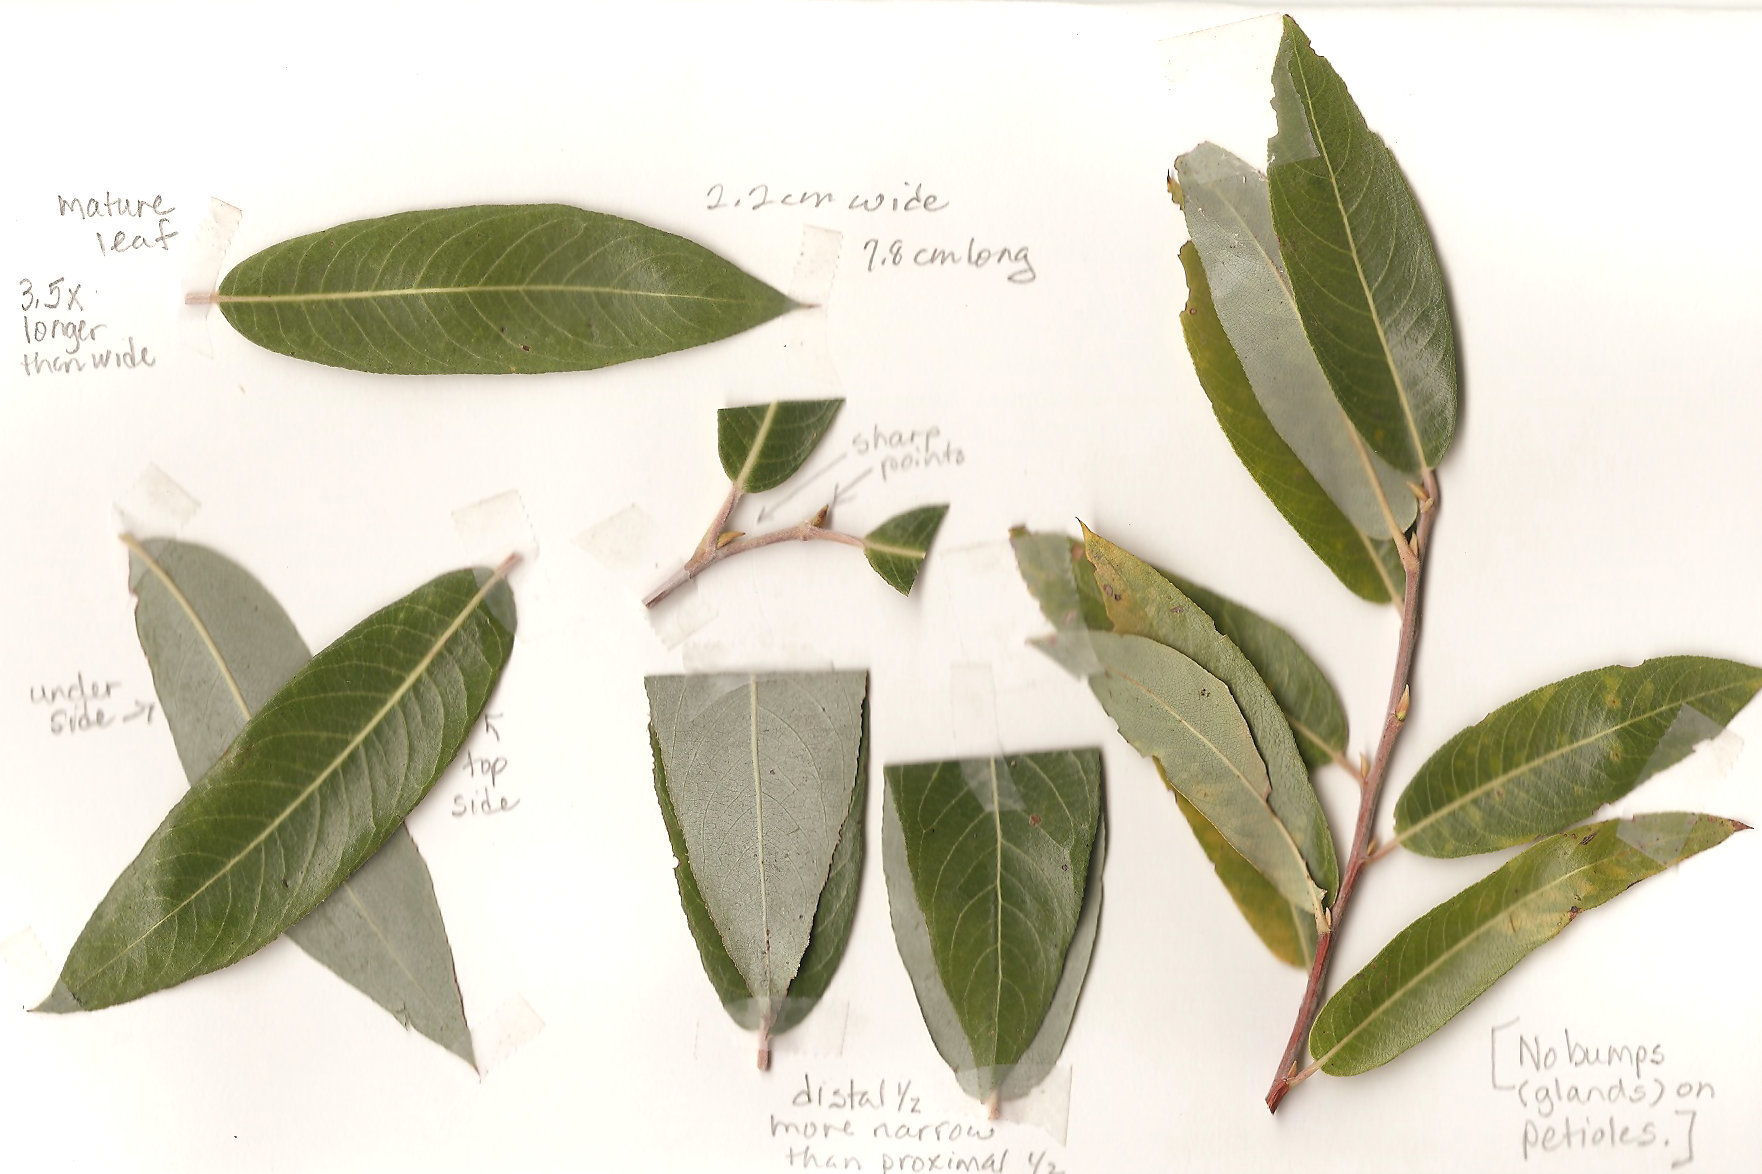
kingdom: Plantae
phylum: Tracheophyta
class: Magnoliopsida
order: Malpighiales
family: Salicaceae
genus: Salix
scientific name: Salix laevigata
